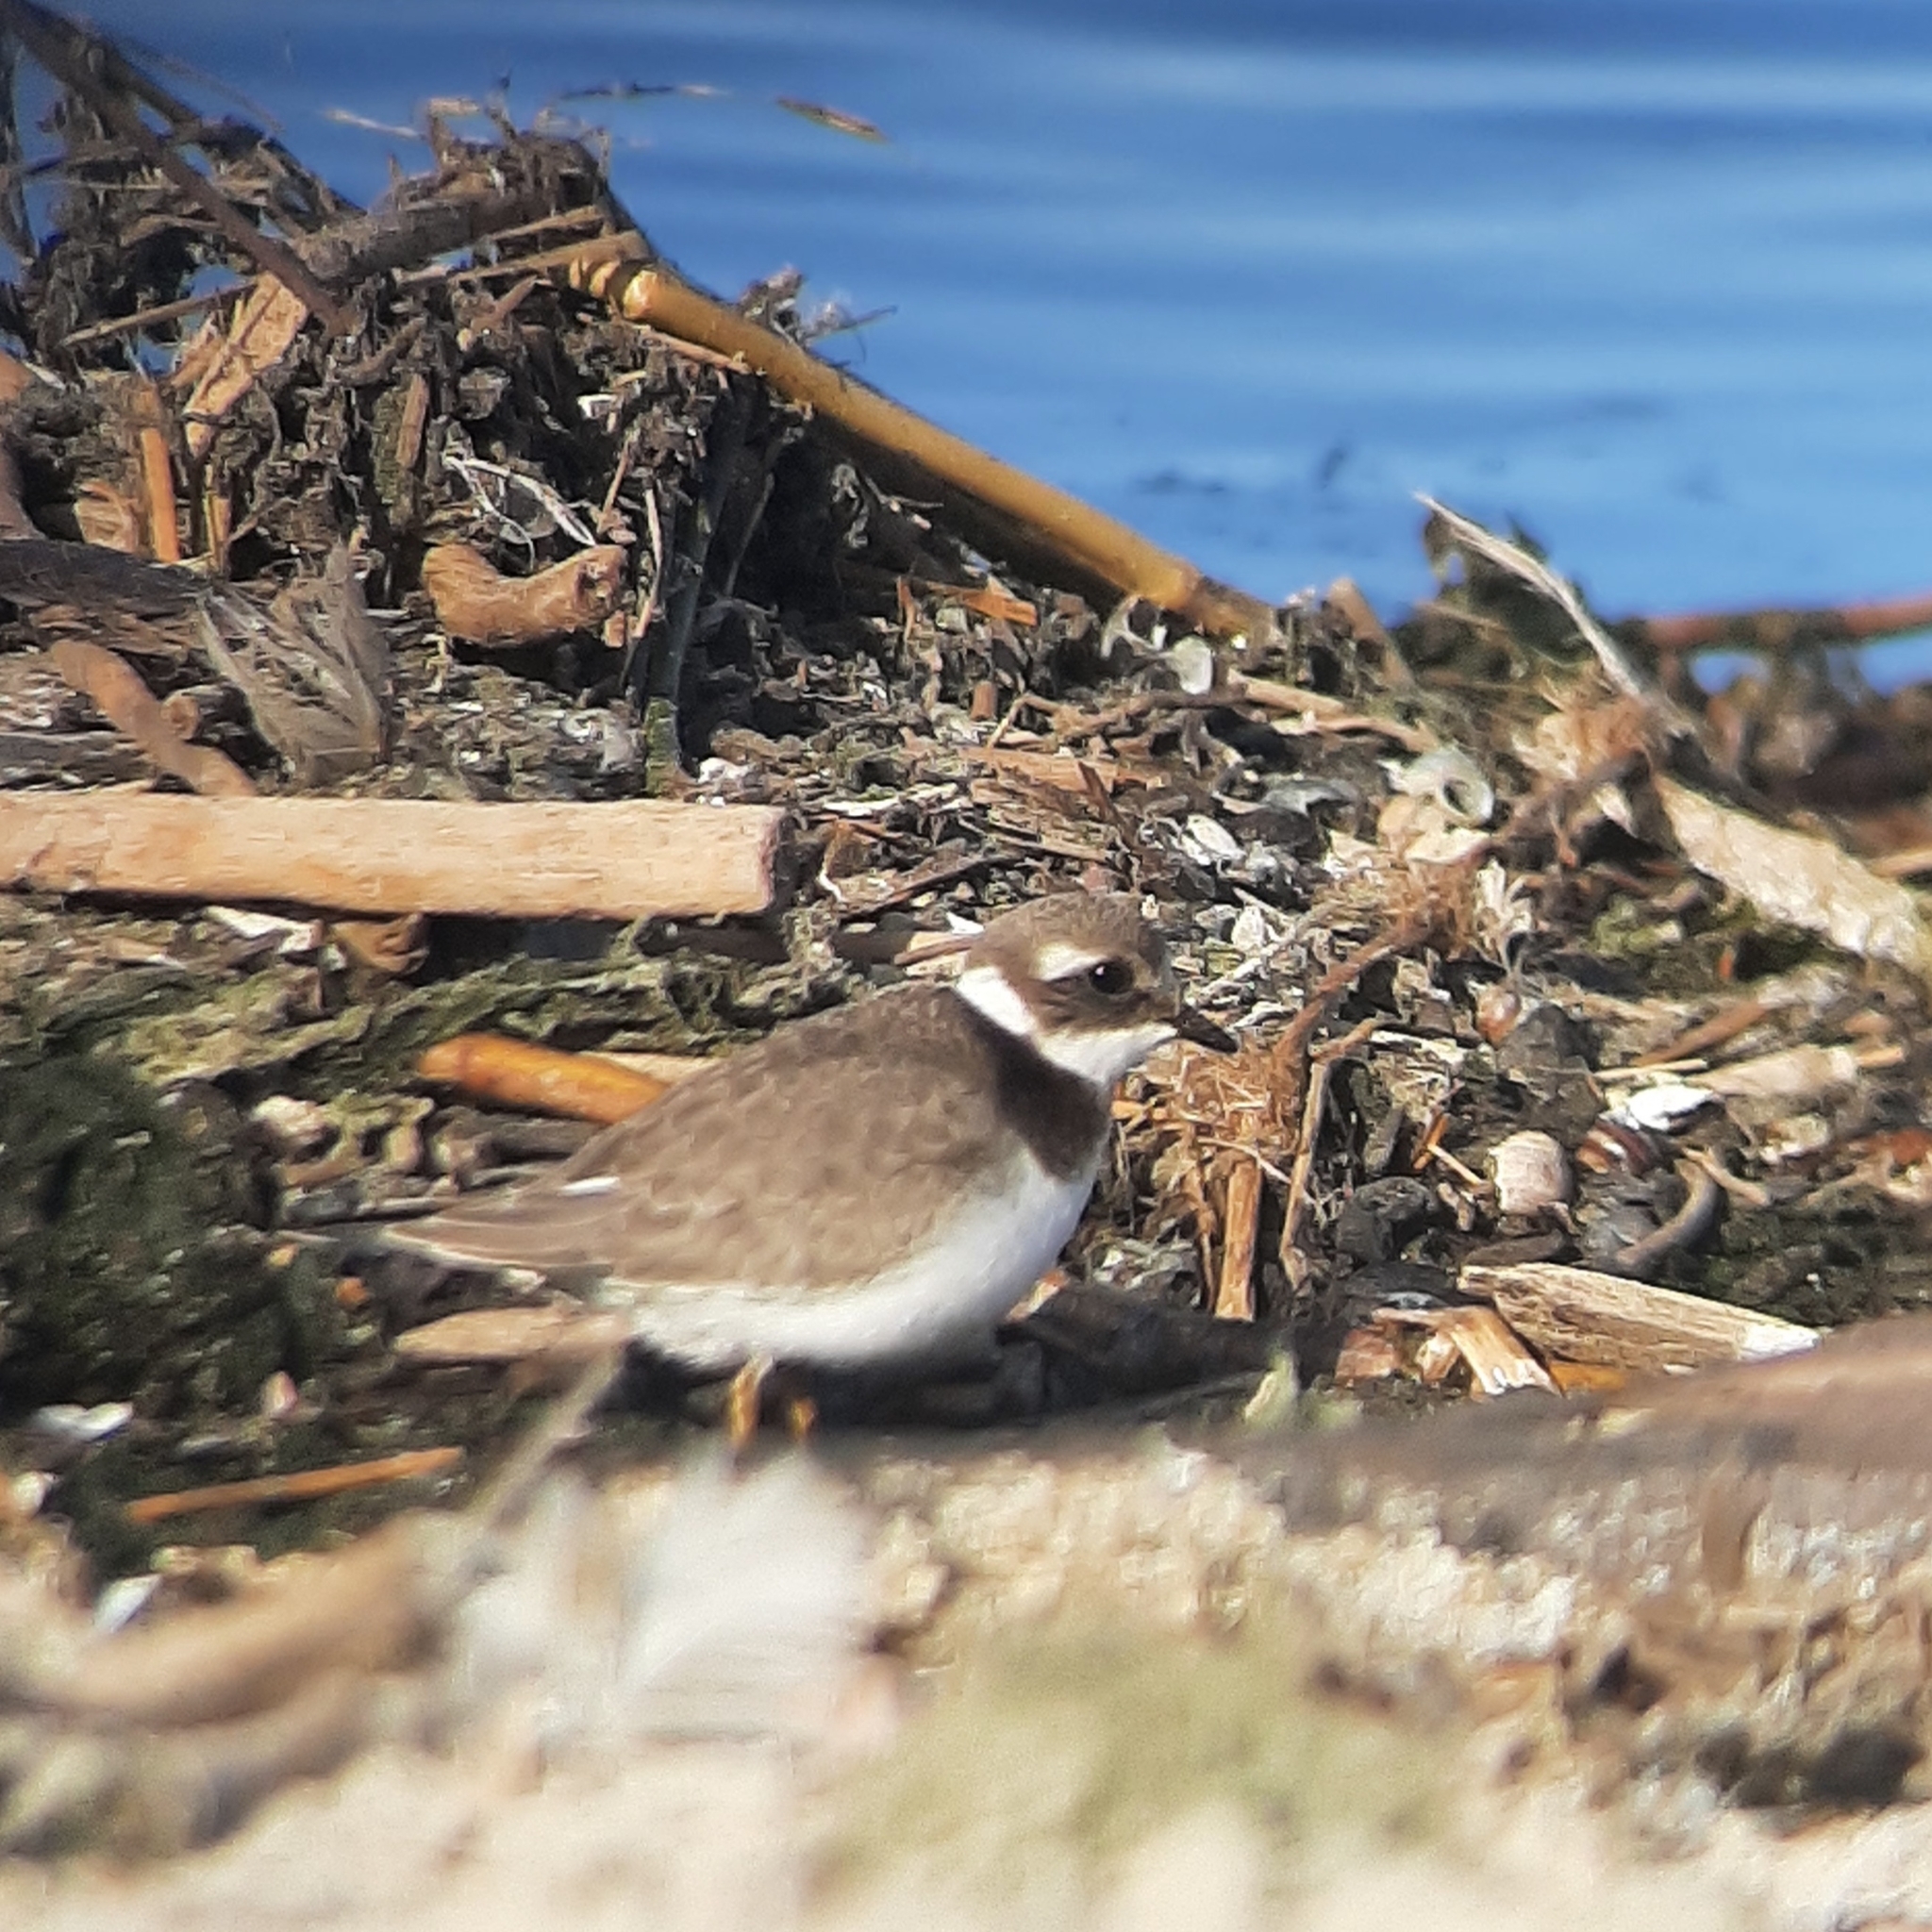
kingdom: Animalia
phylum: Chordata
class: Aves
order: Charadriiformes
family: Charadriidae
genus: Charadrius
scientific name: Charadrius hiaticula
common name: Common ringed plover
